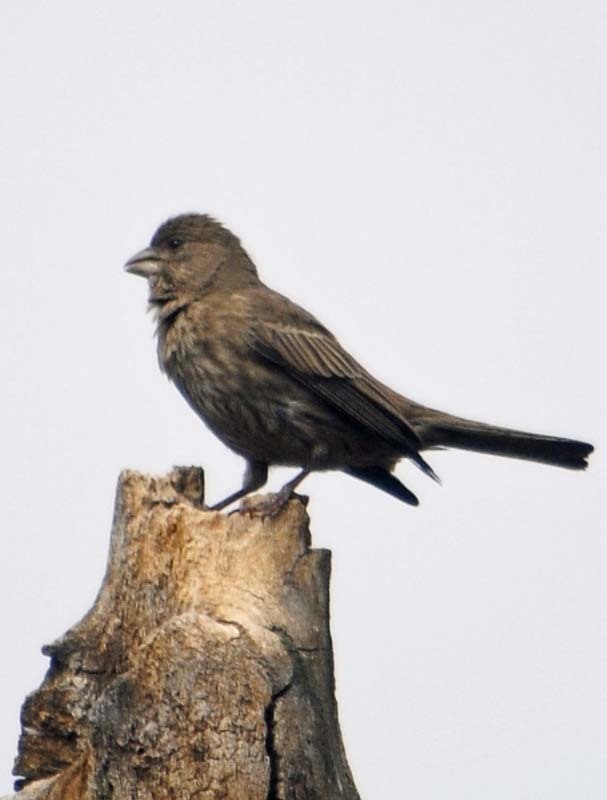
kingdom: Animalia
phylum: Chordata
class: Aves
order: Passeriformes
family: Fringillidae
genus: Haemorhous
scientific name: Haemorhous mexicanus
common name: House finch
